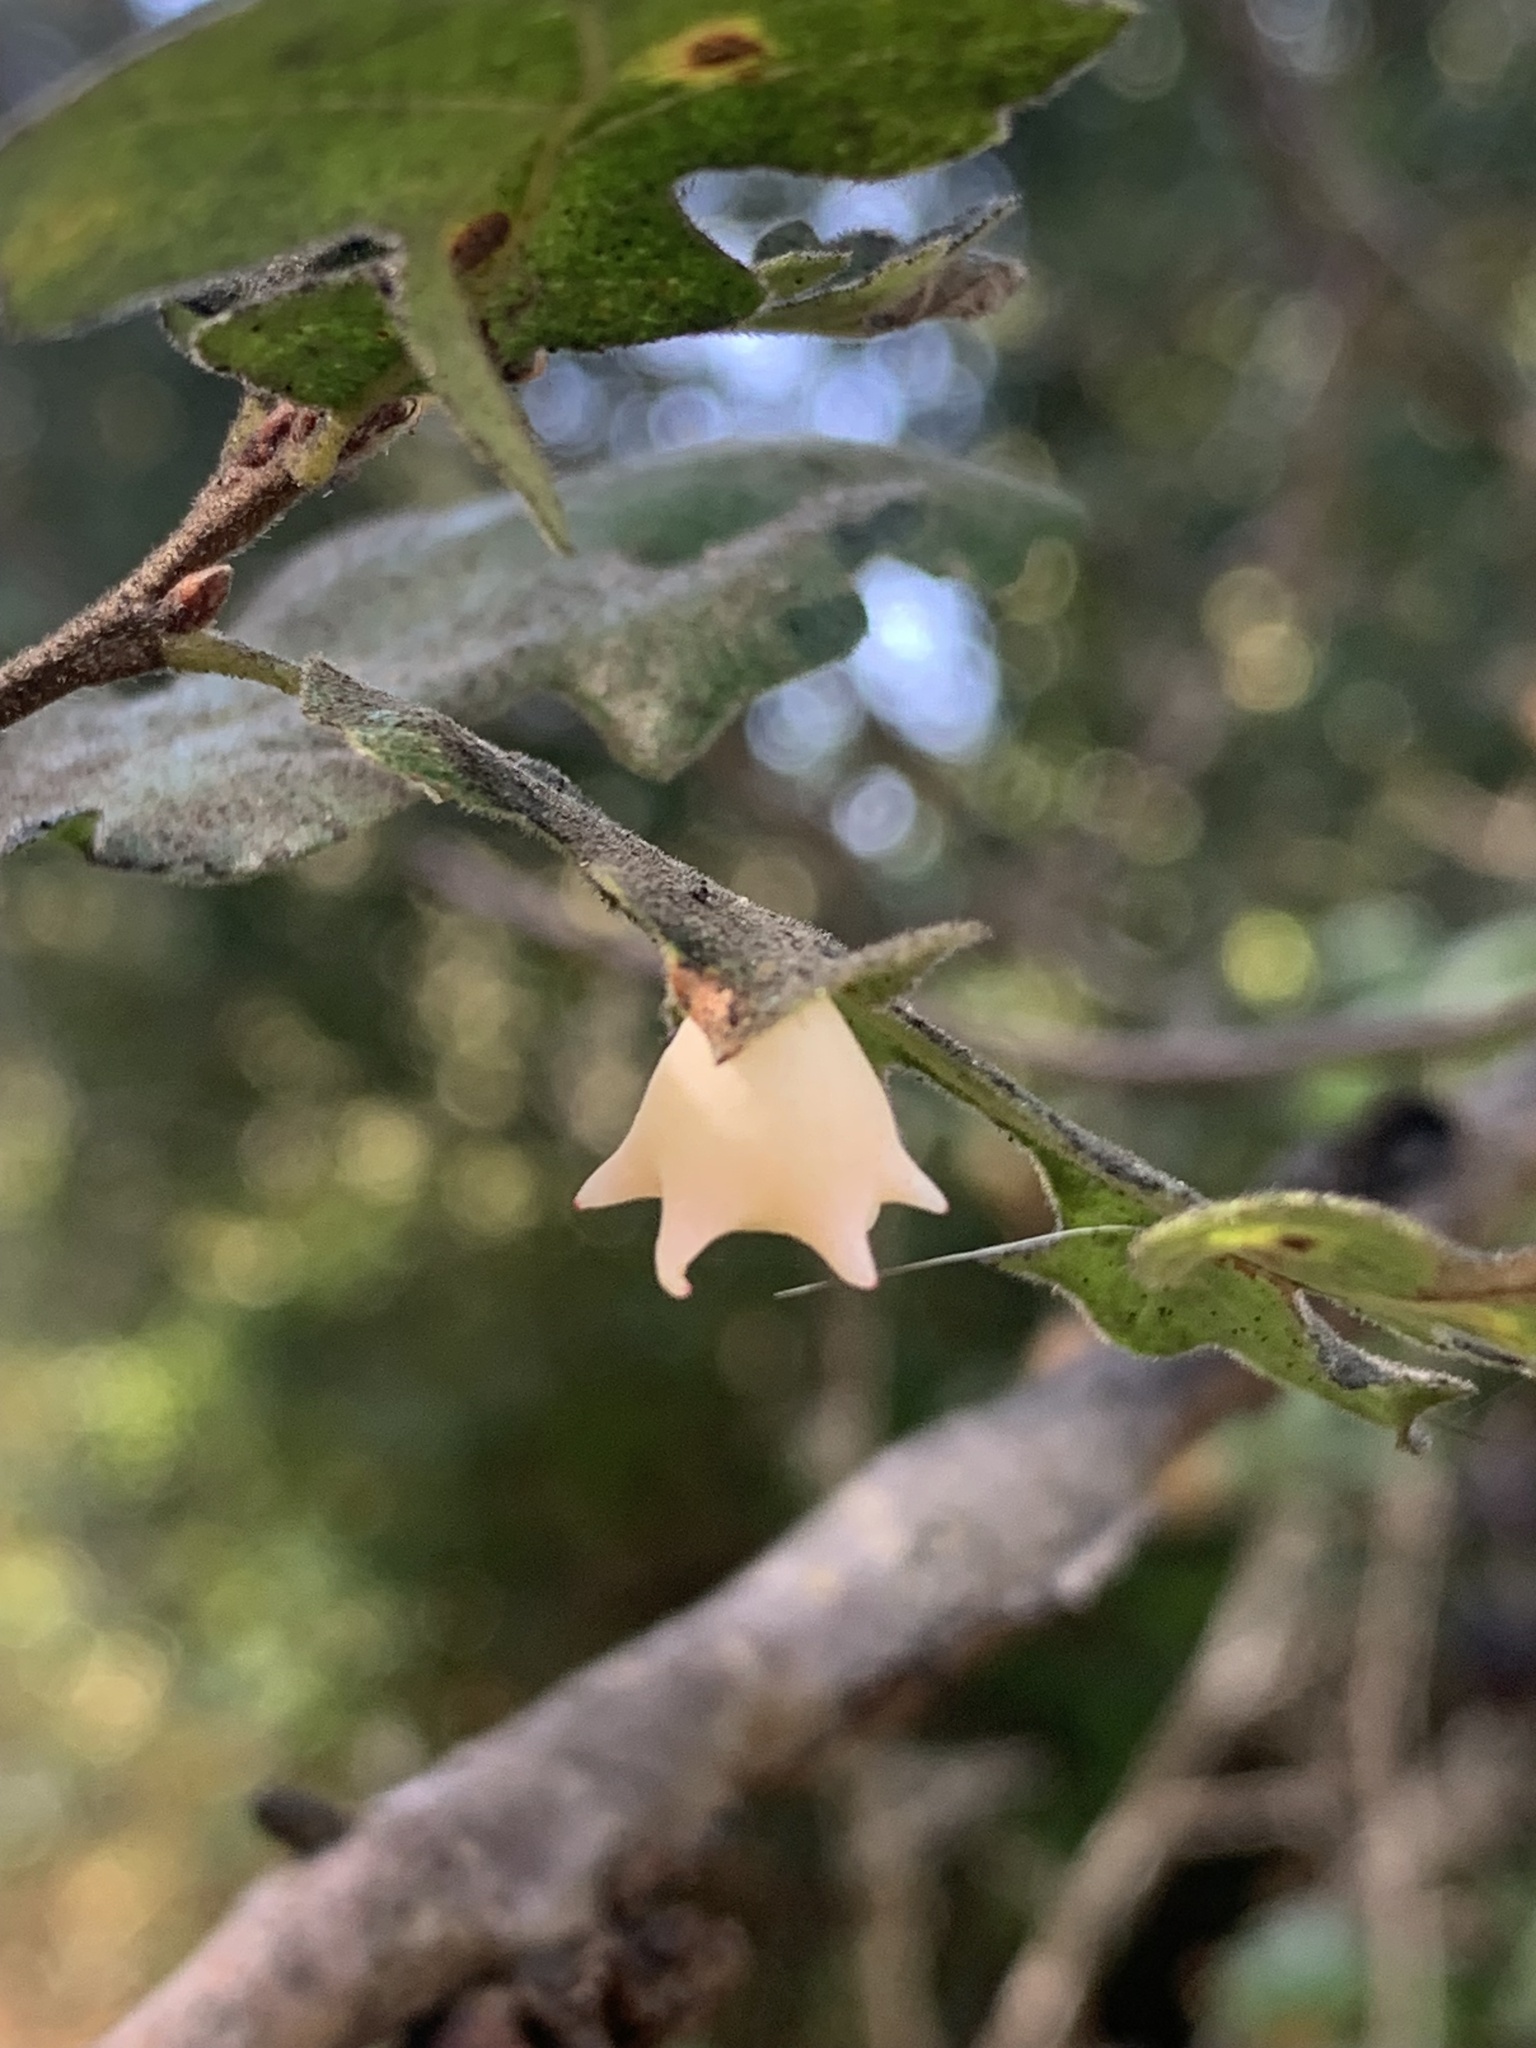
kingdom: Animalia
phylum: Arthropoda
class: Insecta
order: Hymenoptera
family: Cynipidae
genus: Cynips
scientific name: Cynips douglasi
